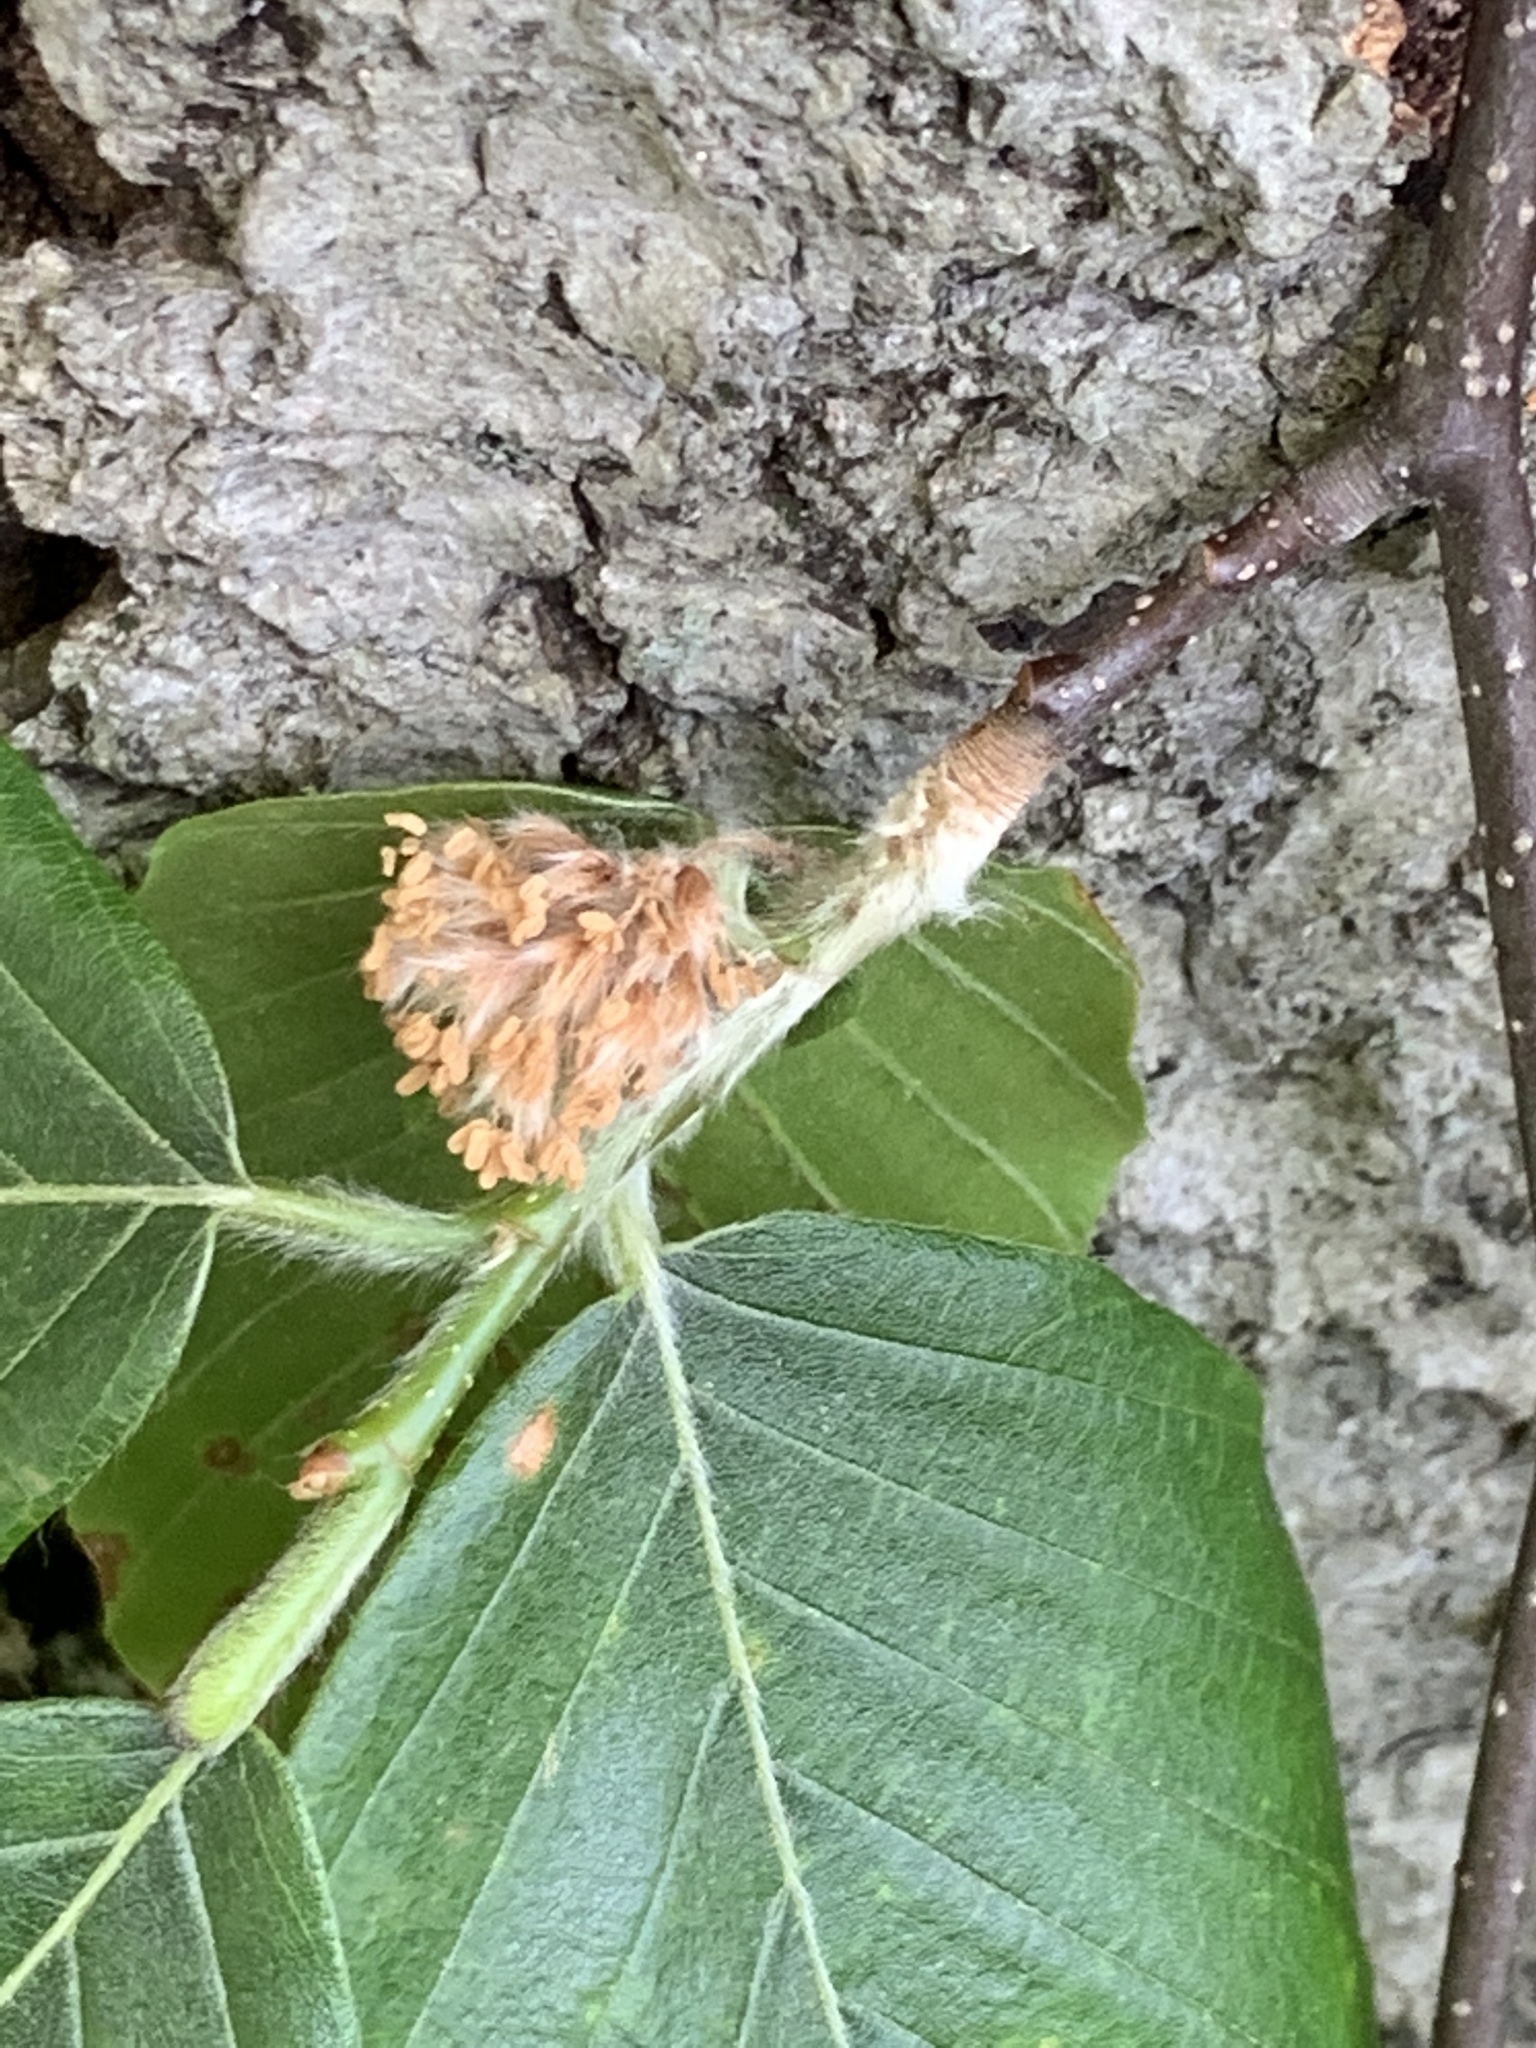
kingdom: Plantae
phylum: Tracheophyta
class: Magnoliopsida
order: Fagales
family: Fagaceae
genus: Fagus
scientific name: Fagus grandifolia
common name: American beech
